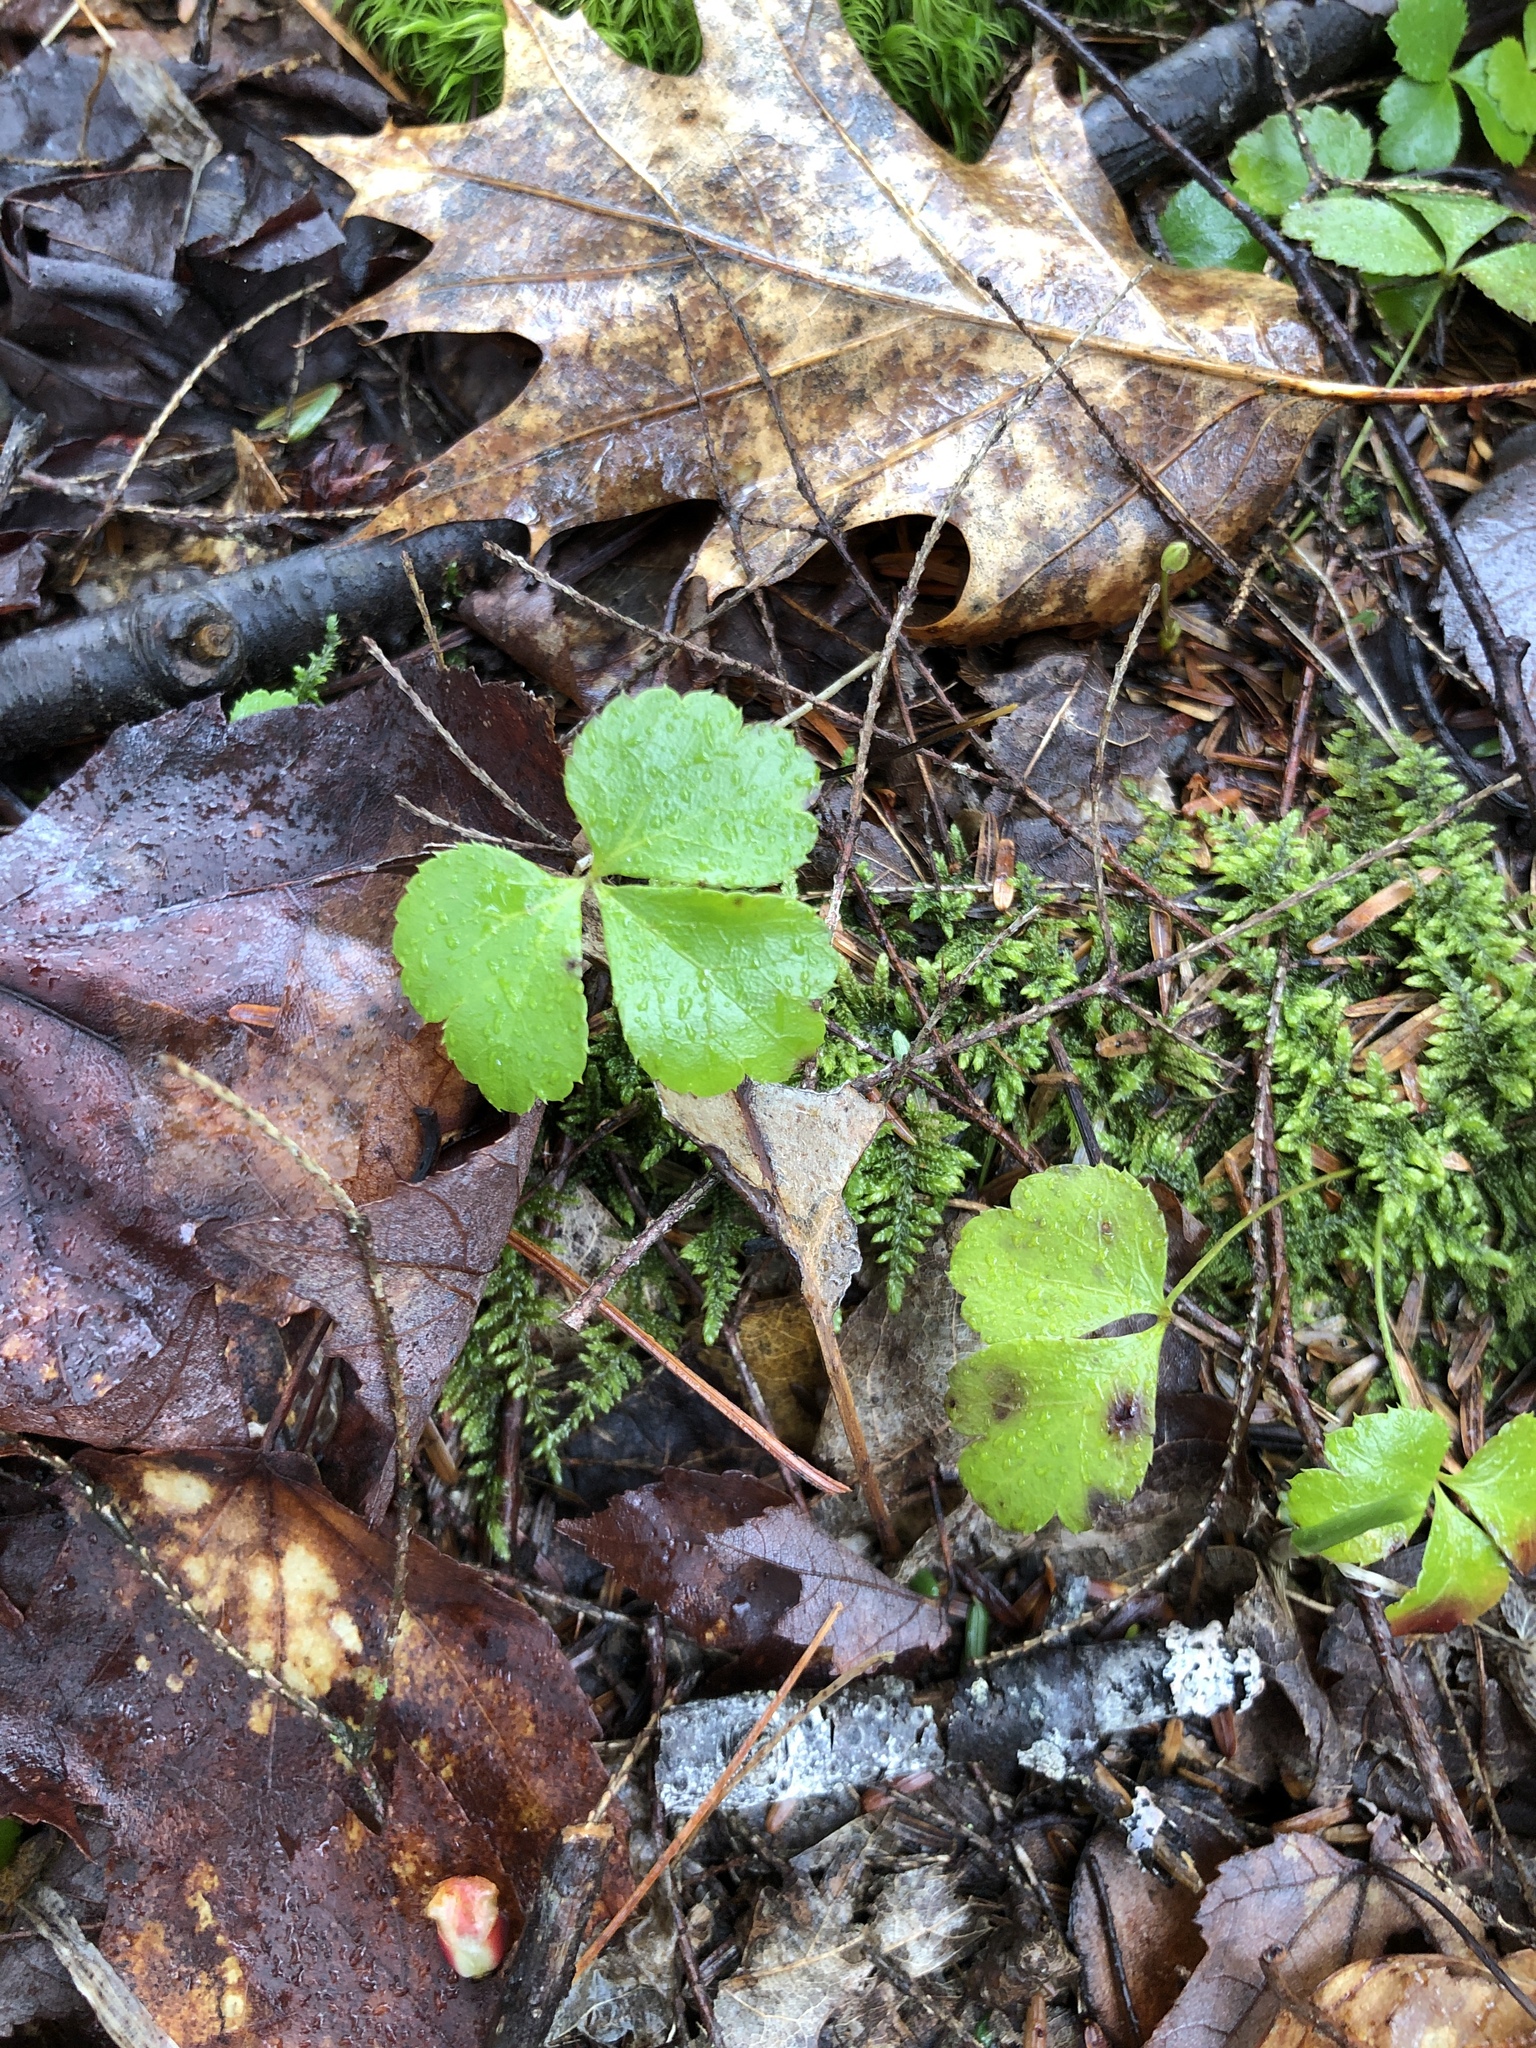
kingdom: Plantae
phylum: Tracheophyta
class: Magnoliopsida
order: Ranunculales
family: Ranunculaceae
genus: Coptis
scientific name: Coptis trifolia
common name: Canker-root
